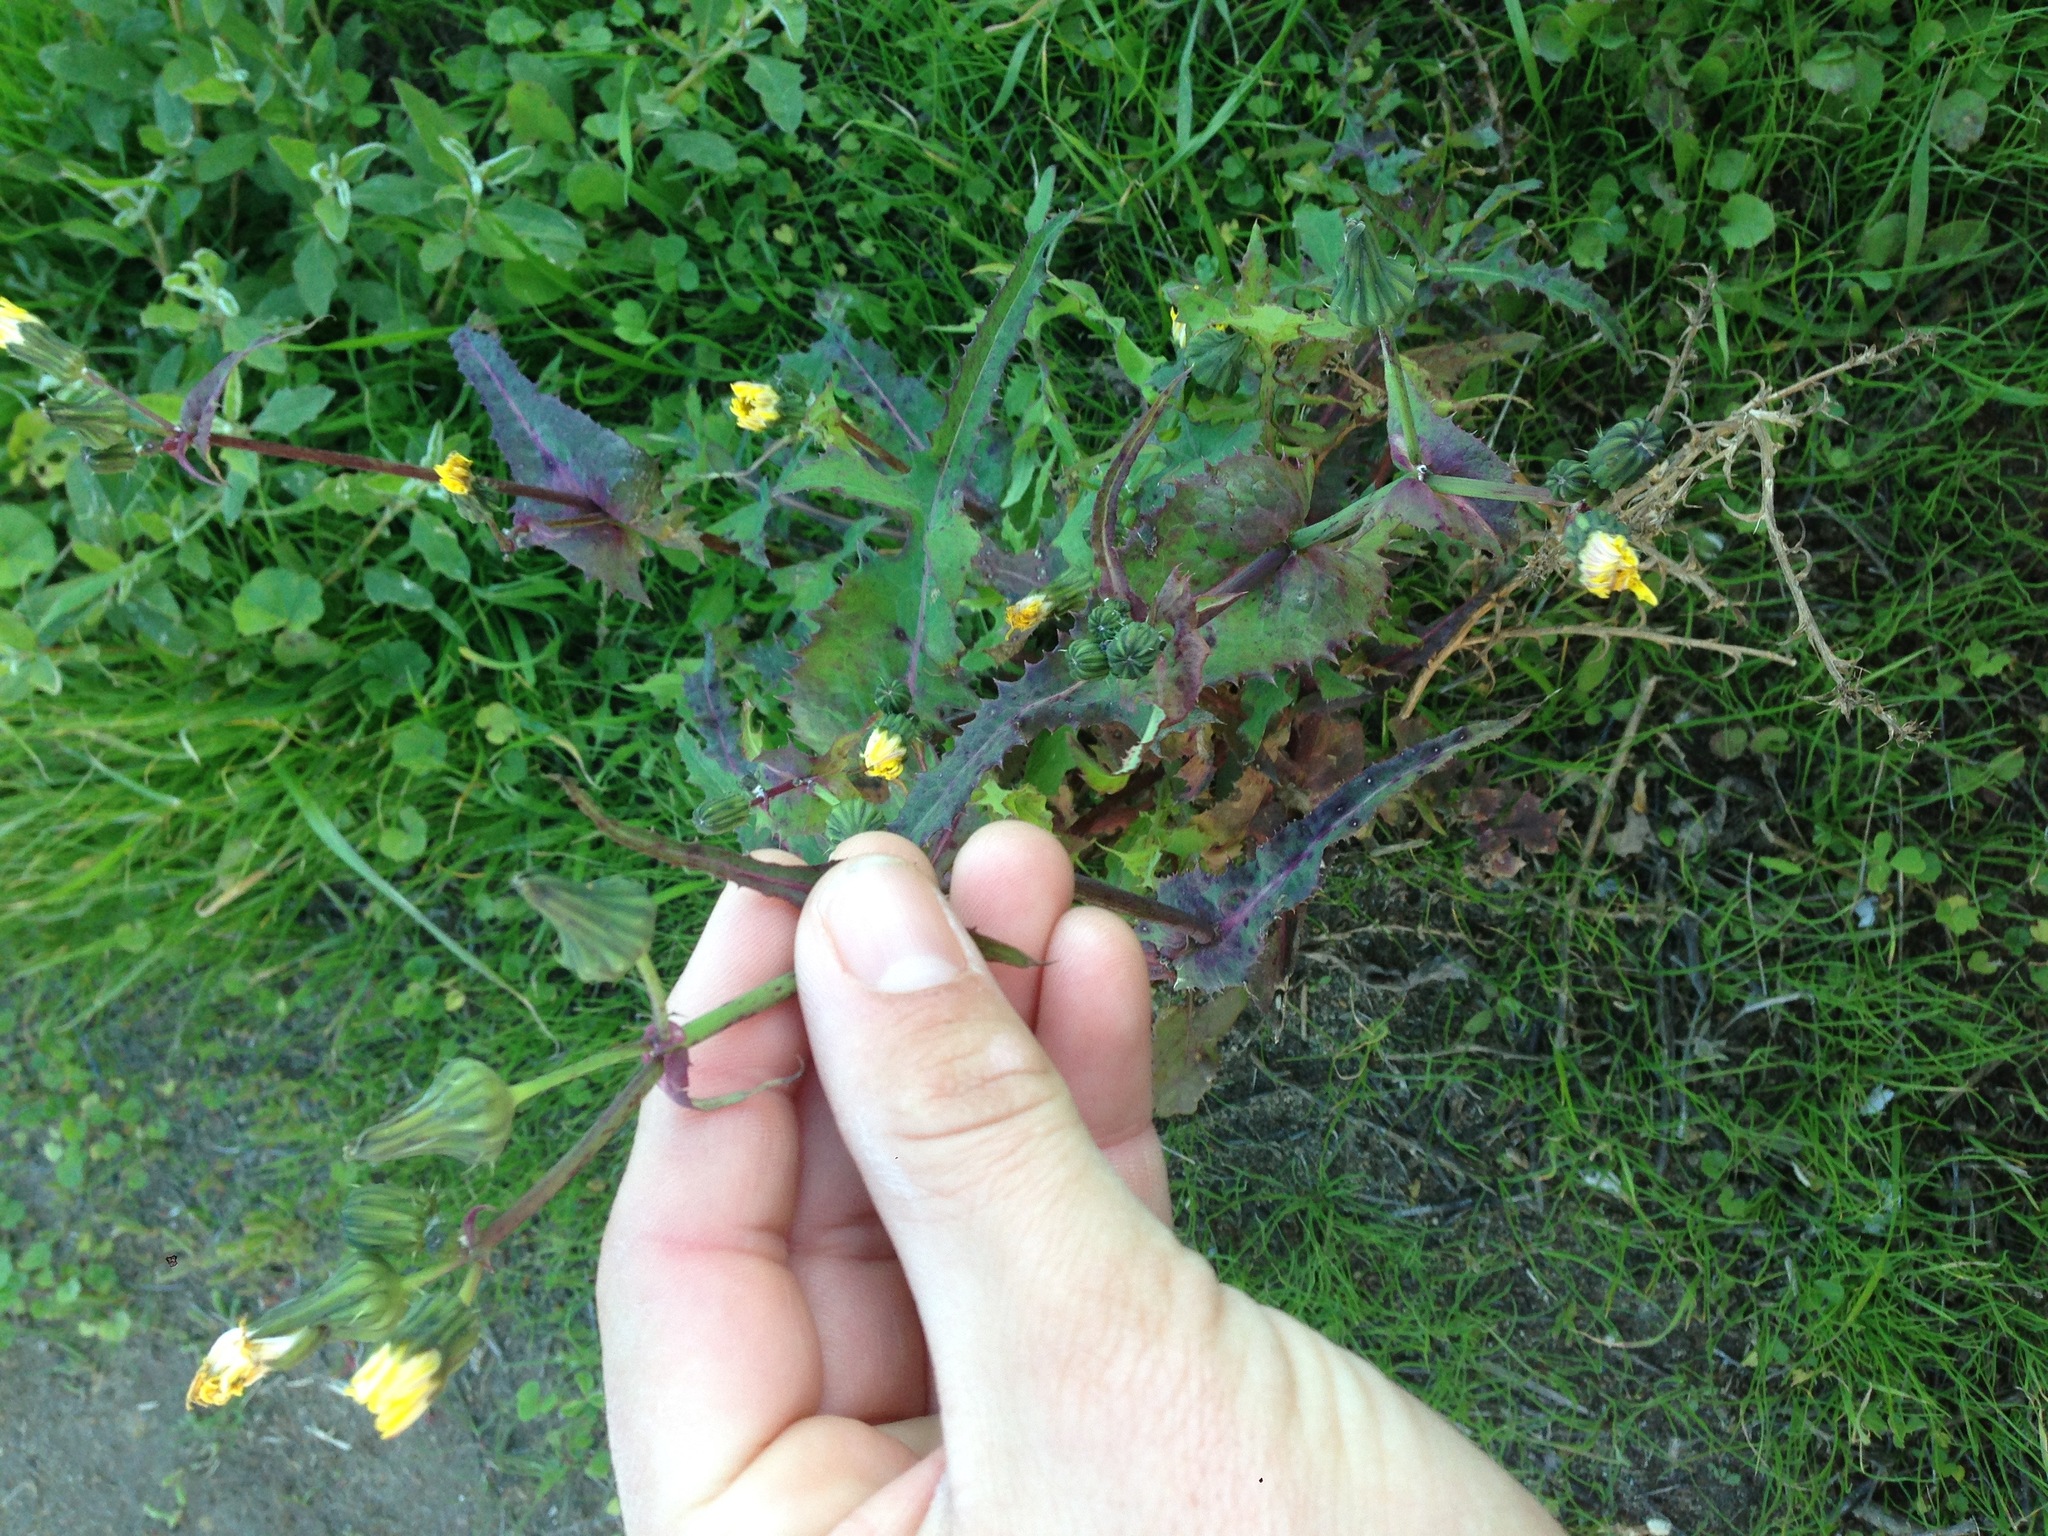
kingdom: Plantae
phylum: Tracheophyta
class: Magnoliopsida
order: Asterales
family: Asteraceae
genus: Sonchus
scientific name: Sonchus oleraceus
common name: Common sowthistle
